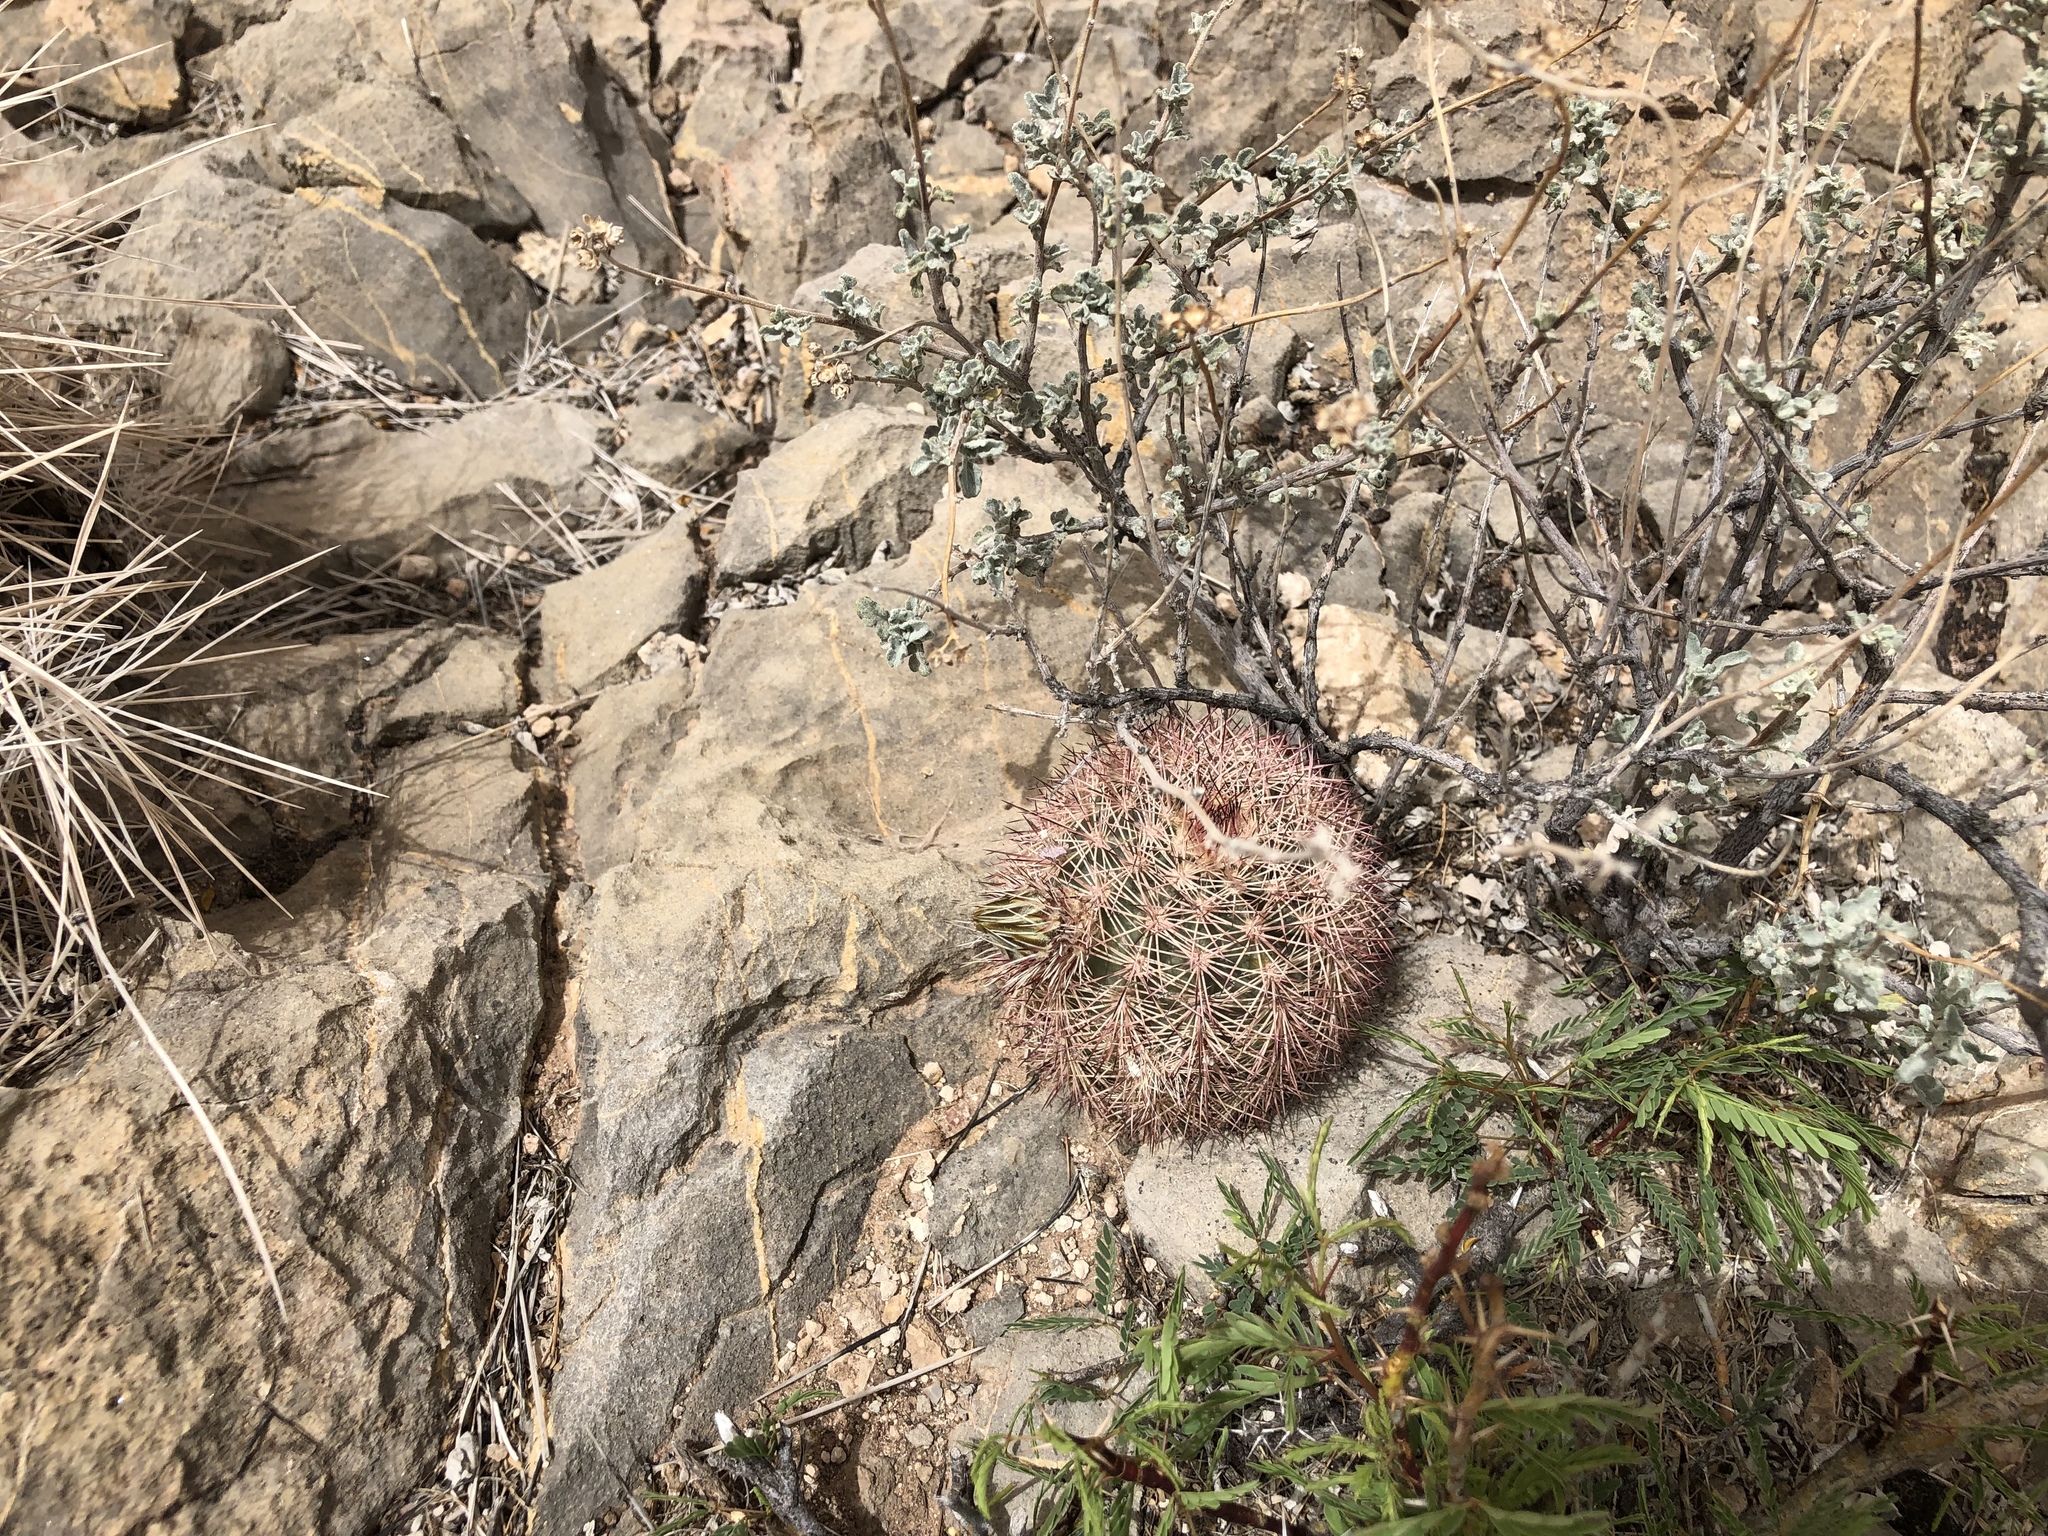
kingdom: Plantae
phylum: Tracheophyta
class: Magnoliopsida
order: Caryophyllales
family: Cactaceae
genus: Echinocereus
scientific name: Echinocereus dasyacanthus
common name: Spiny hedgehog cactus
